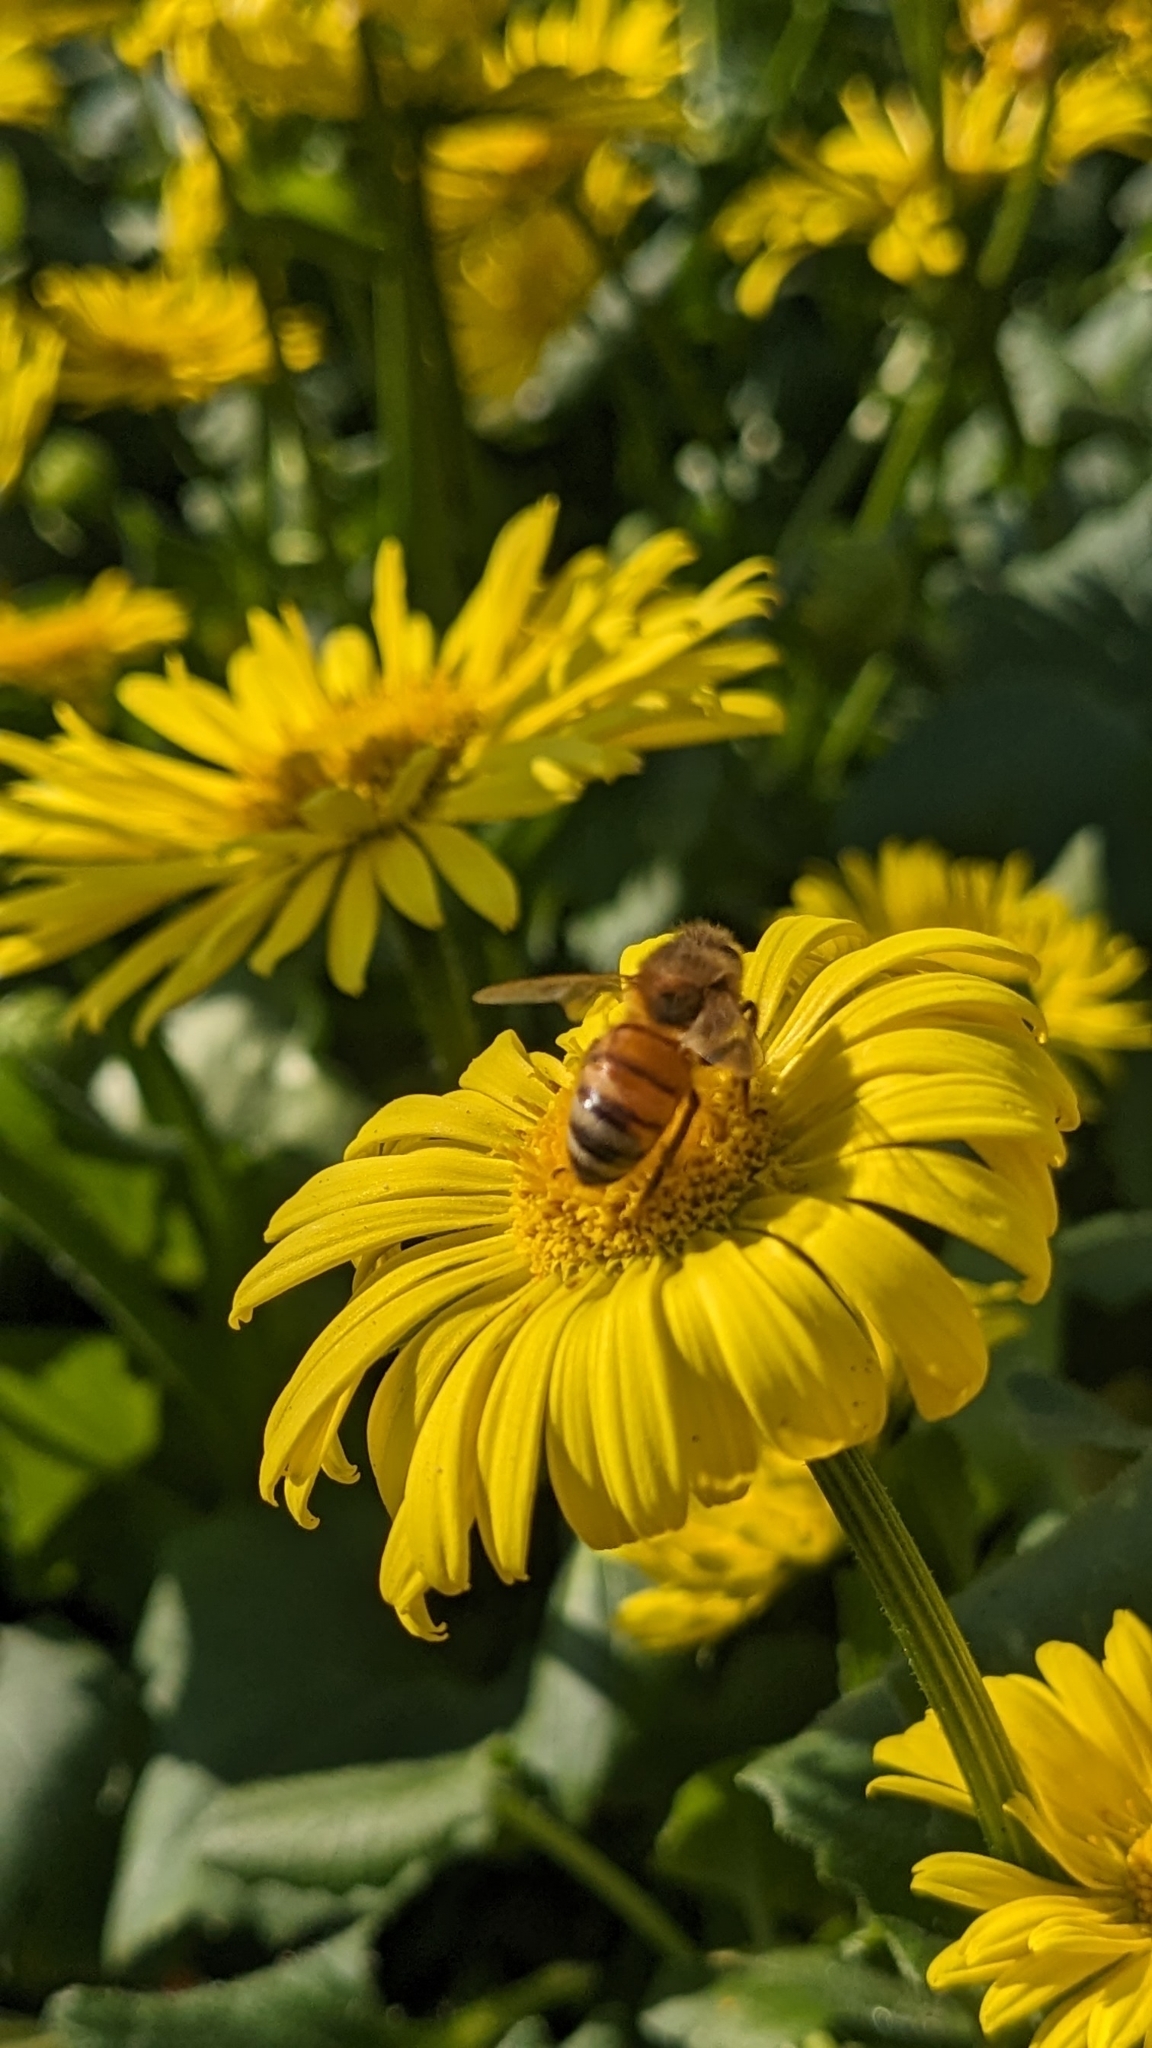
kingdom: Animalia
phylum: Arthropoda
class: Insecta
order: Hymenoptera
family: Apidae
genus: Apis
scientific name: Apis mellifera
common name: Honey bee
